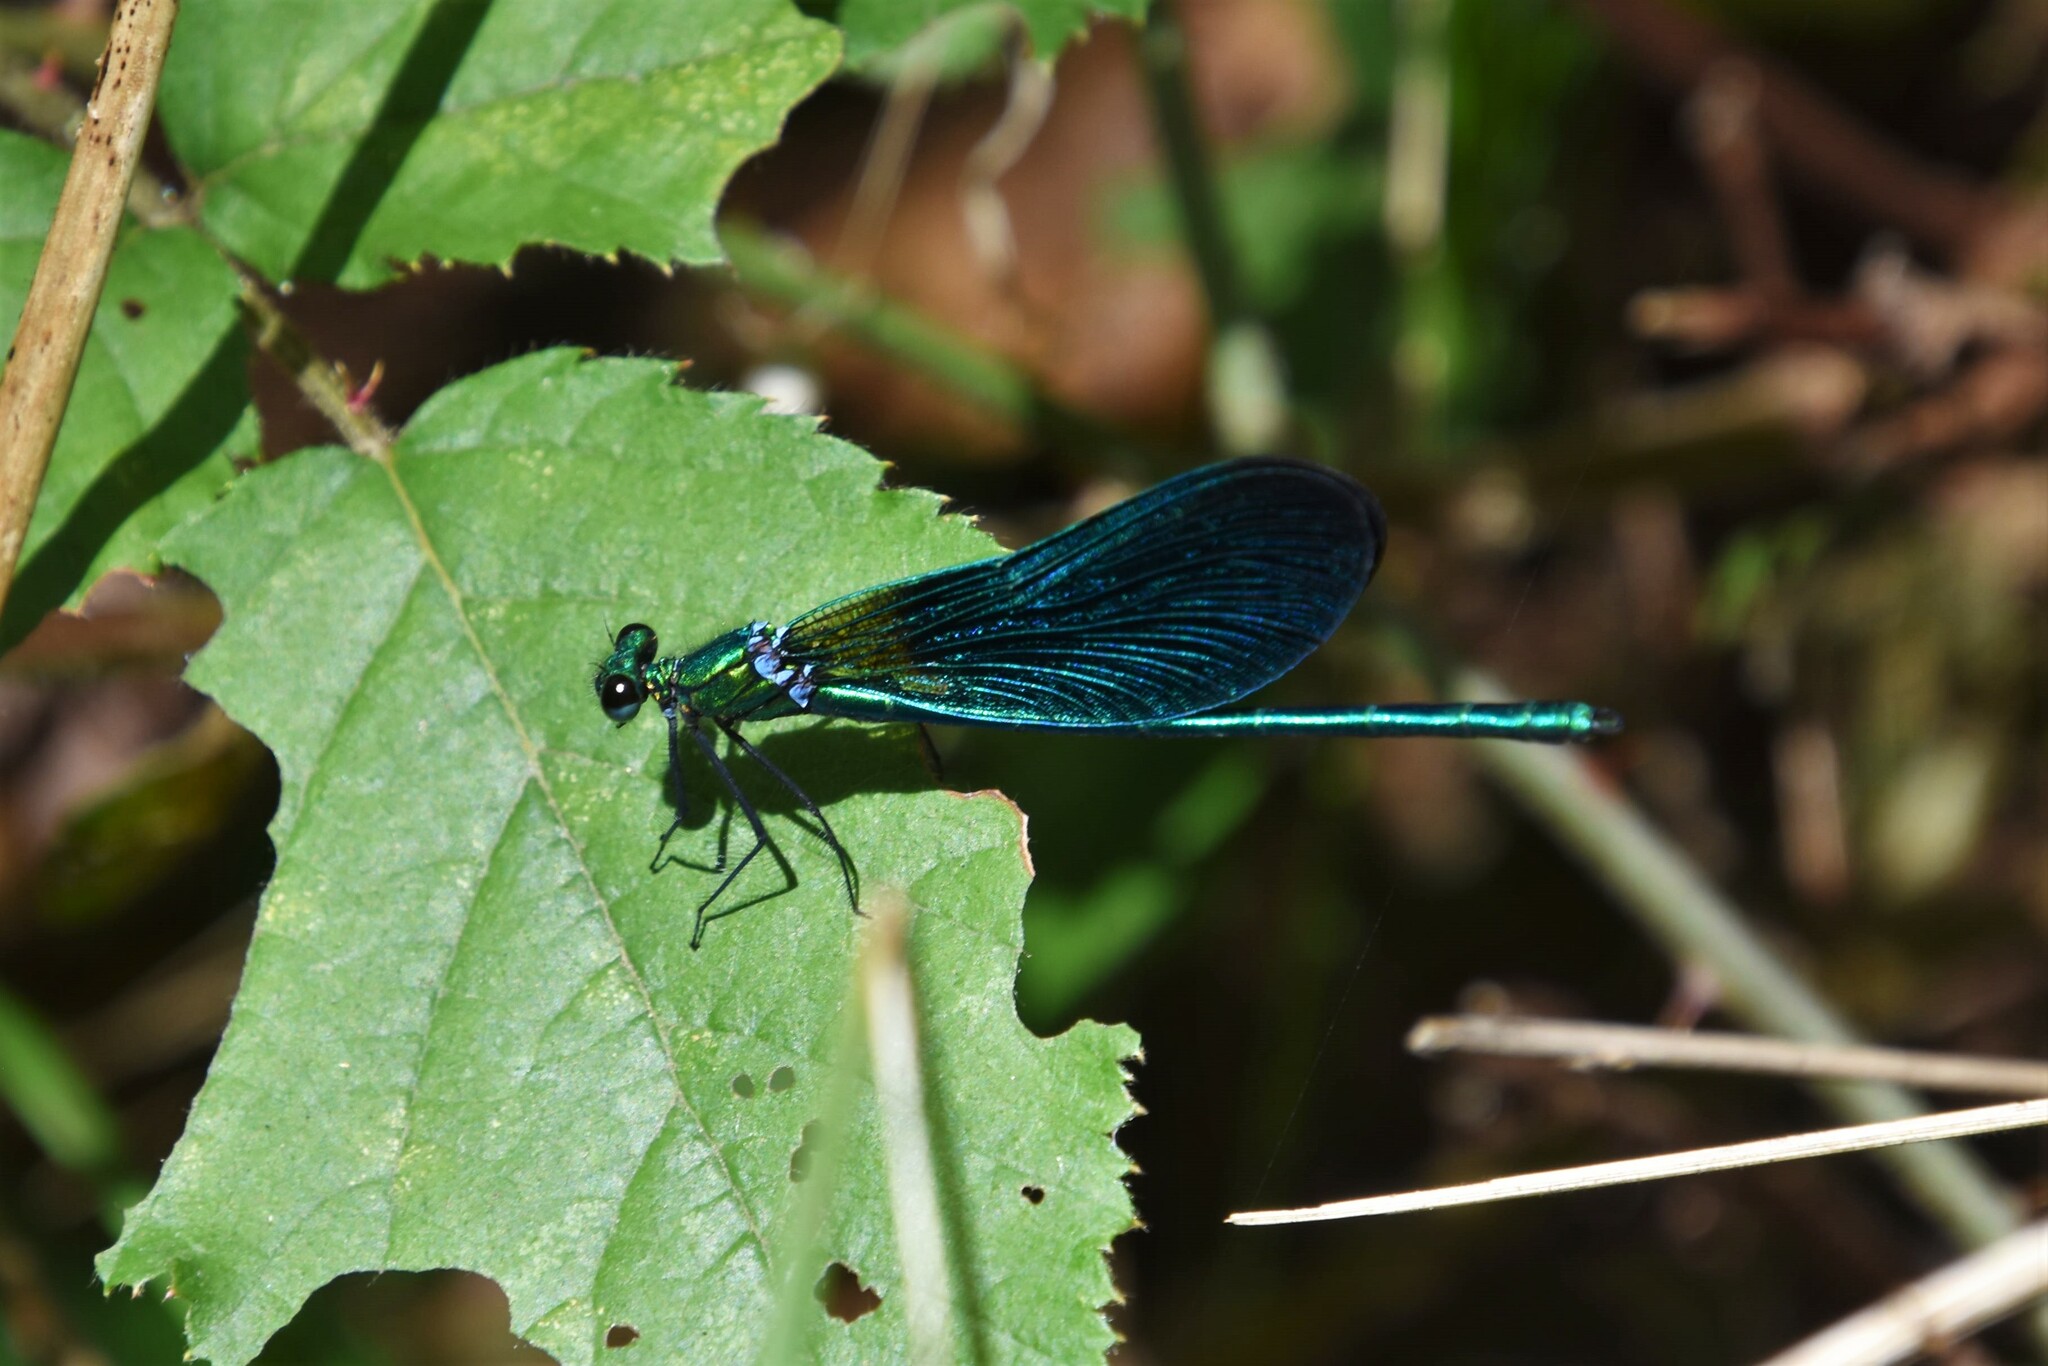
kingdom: Animalia
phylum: Arthropoda
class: Insecta
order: Odonata
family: Calopterygidae
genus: Calopteryx
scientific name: Calopteryx virgo
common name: Beautiful demoiselle
